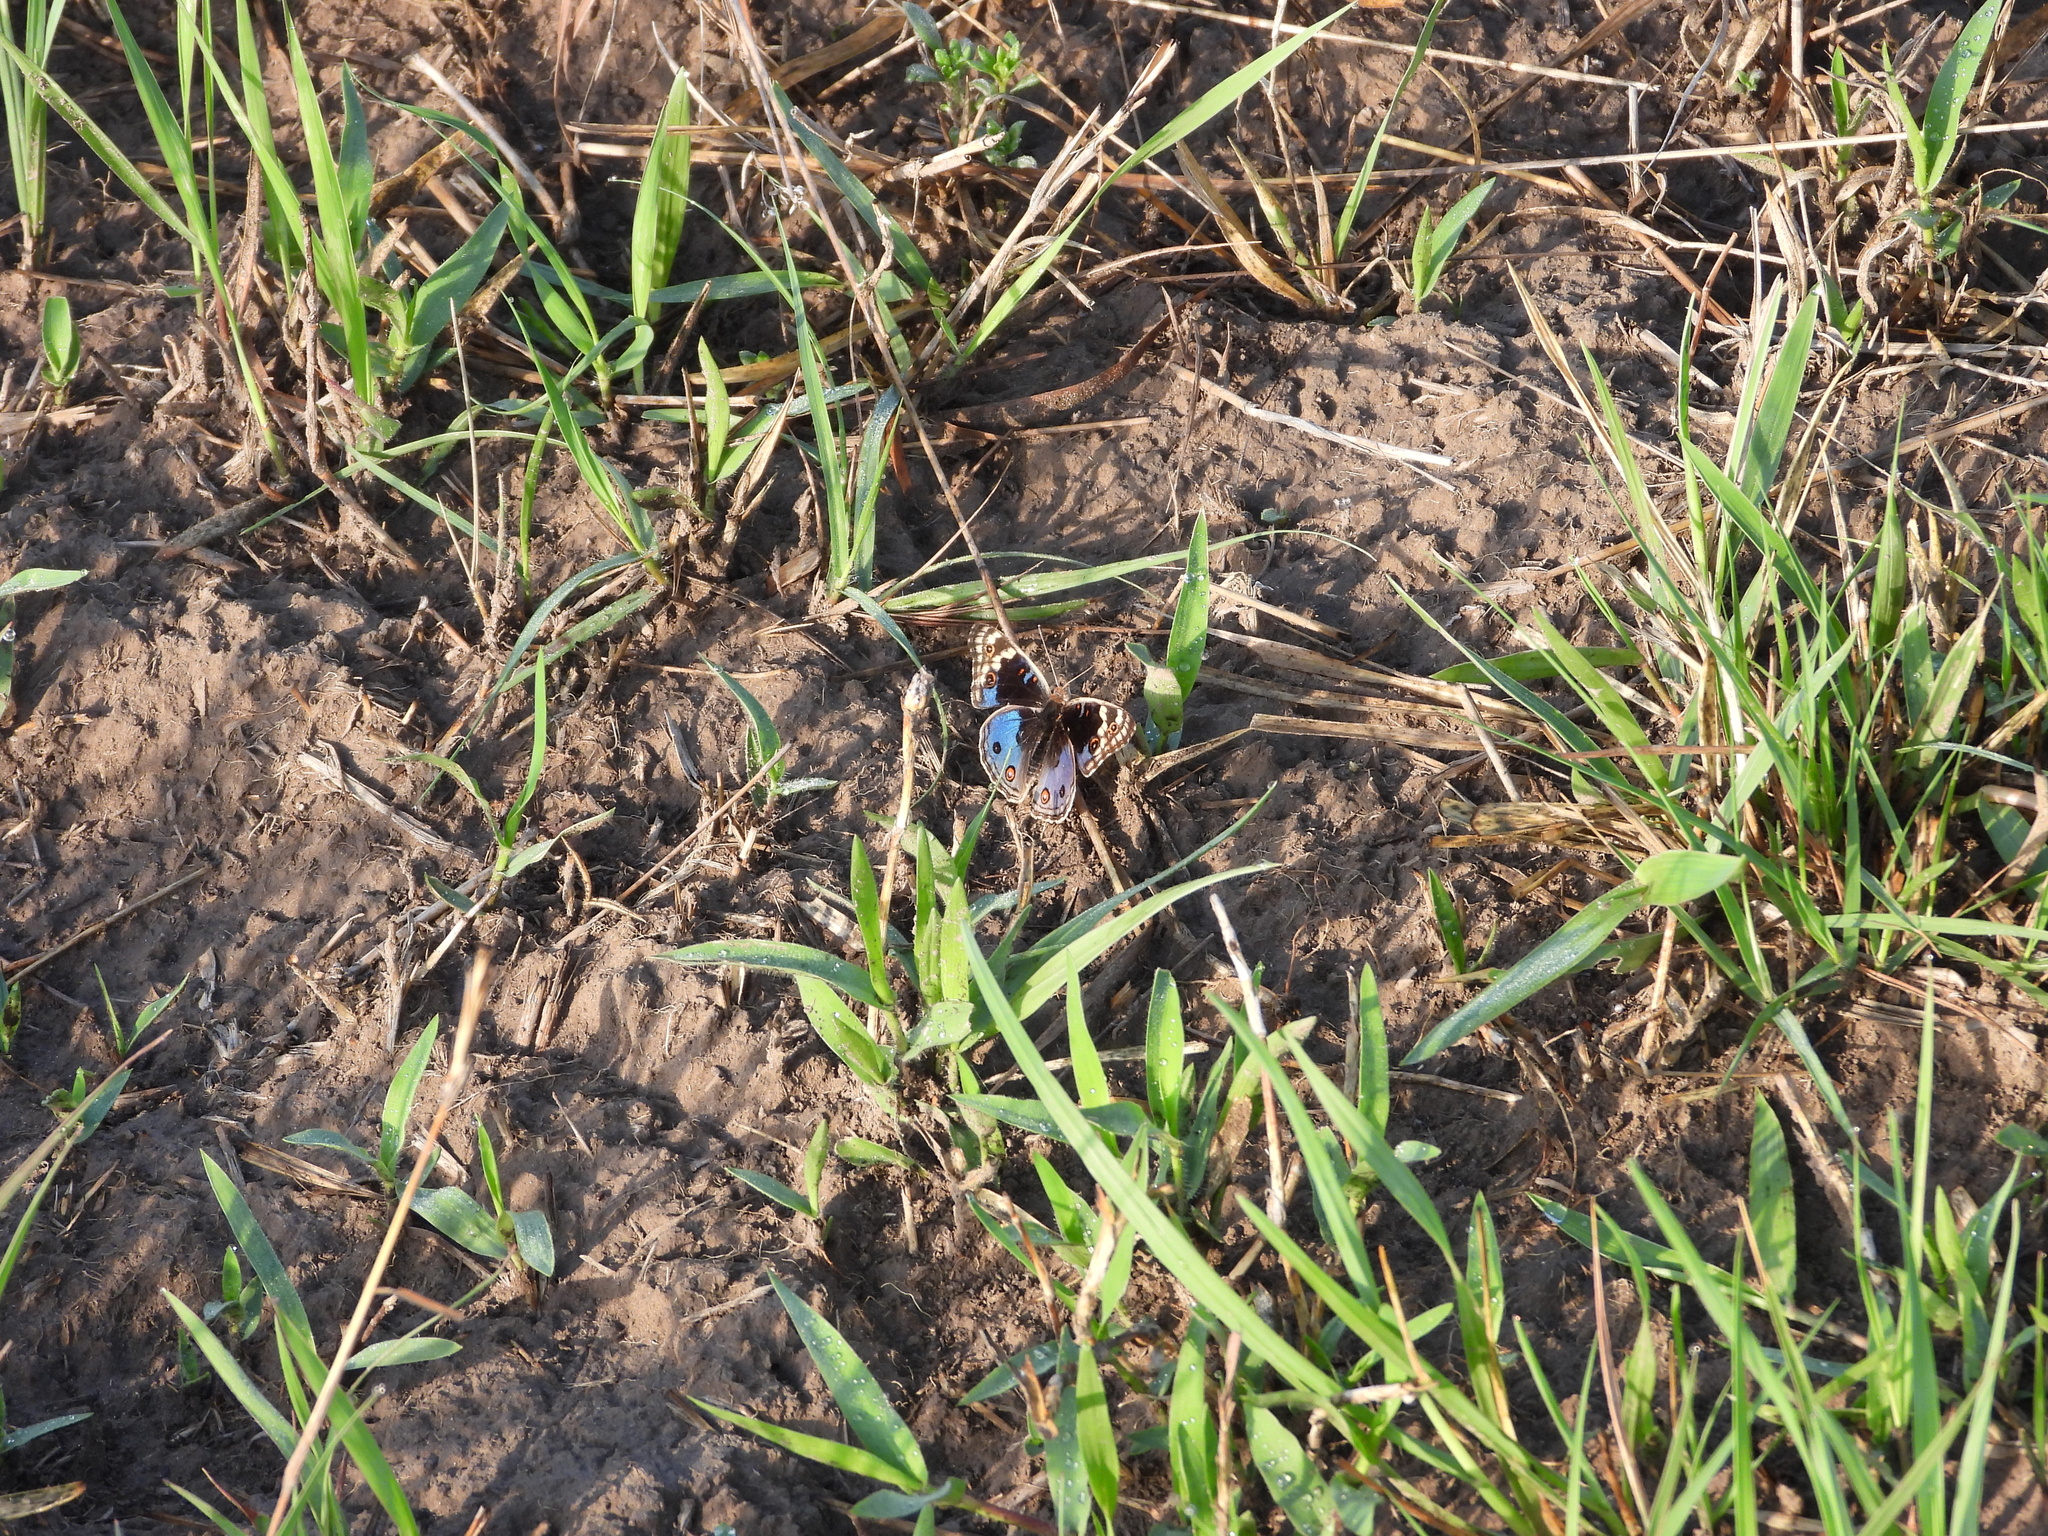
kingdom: Animalia
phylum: Arthropoda
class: Insecta
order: Lepidoptera
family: Nymphalidae
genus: Junonia
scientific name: Junonia orithya
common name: Blue pansy
